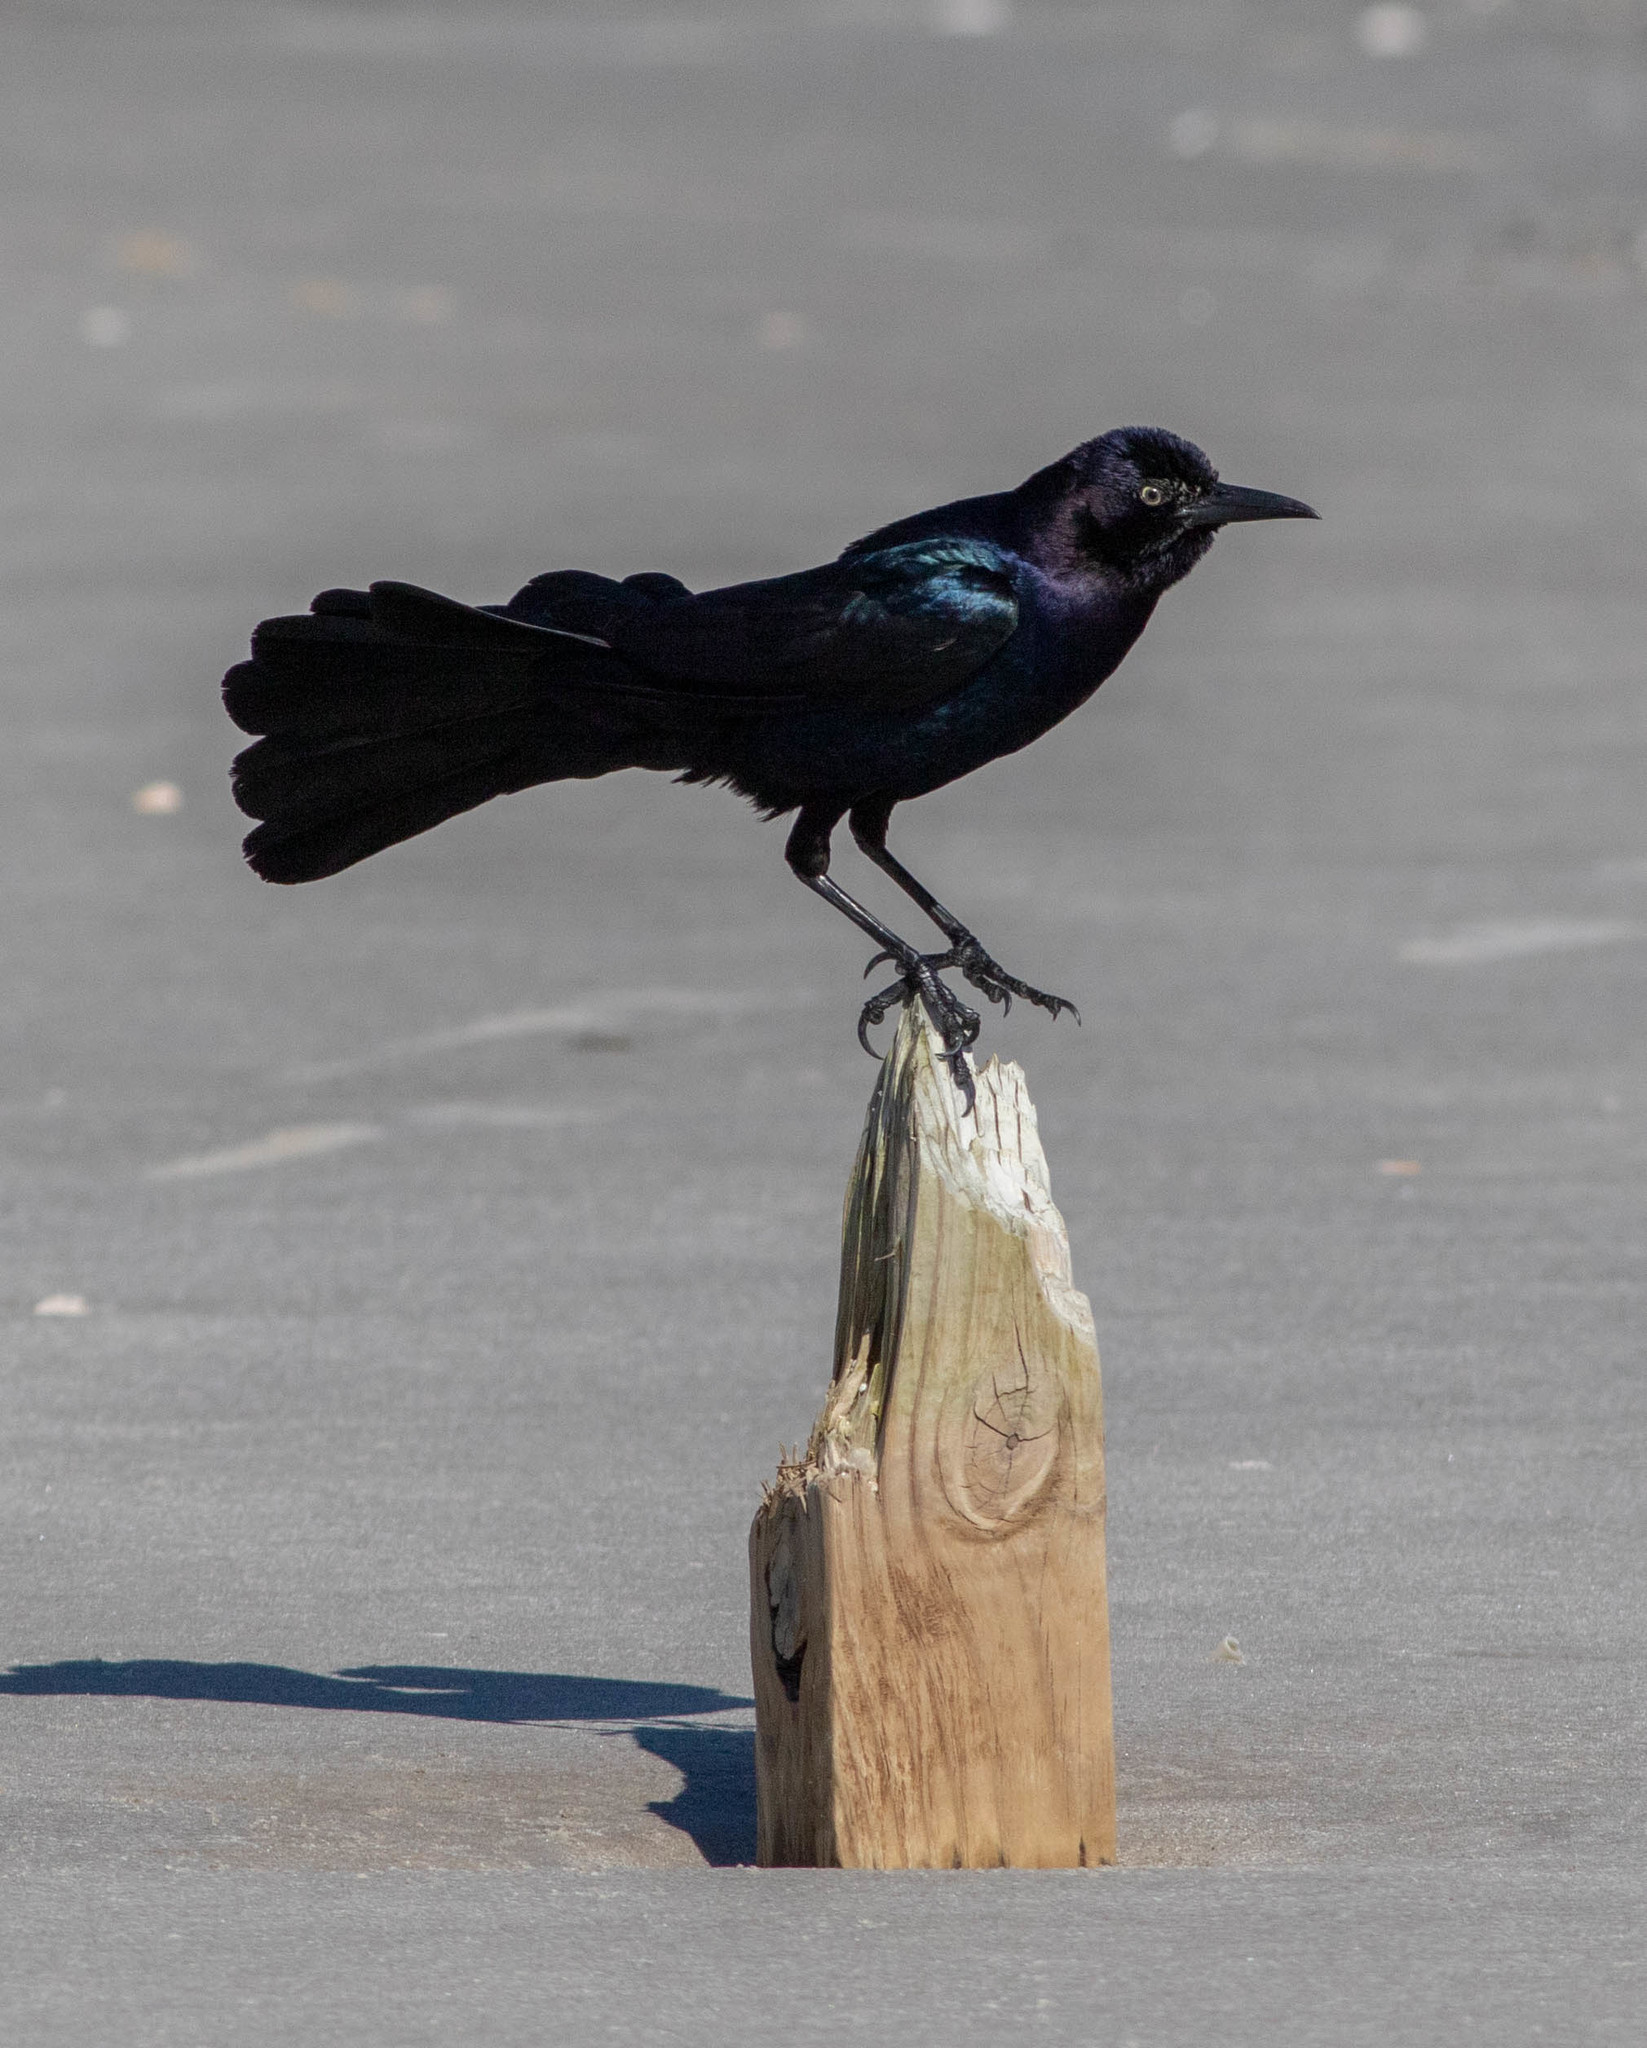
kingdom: Animalia
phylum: Chordata
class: Aves
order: Passeriformes
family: Icteridae
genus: Quiscalus
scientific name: Quiscalus major
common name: Boat-tailed grackle
